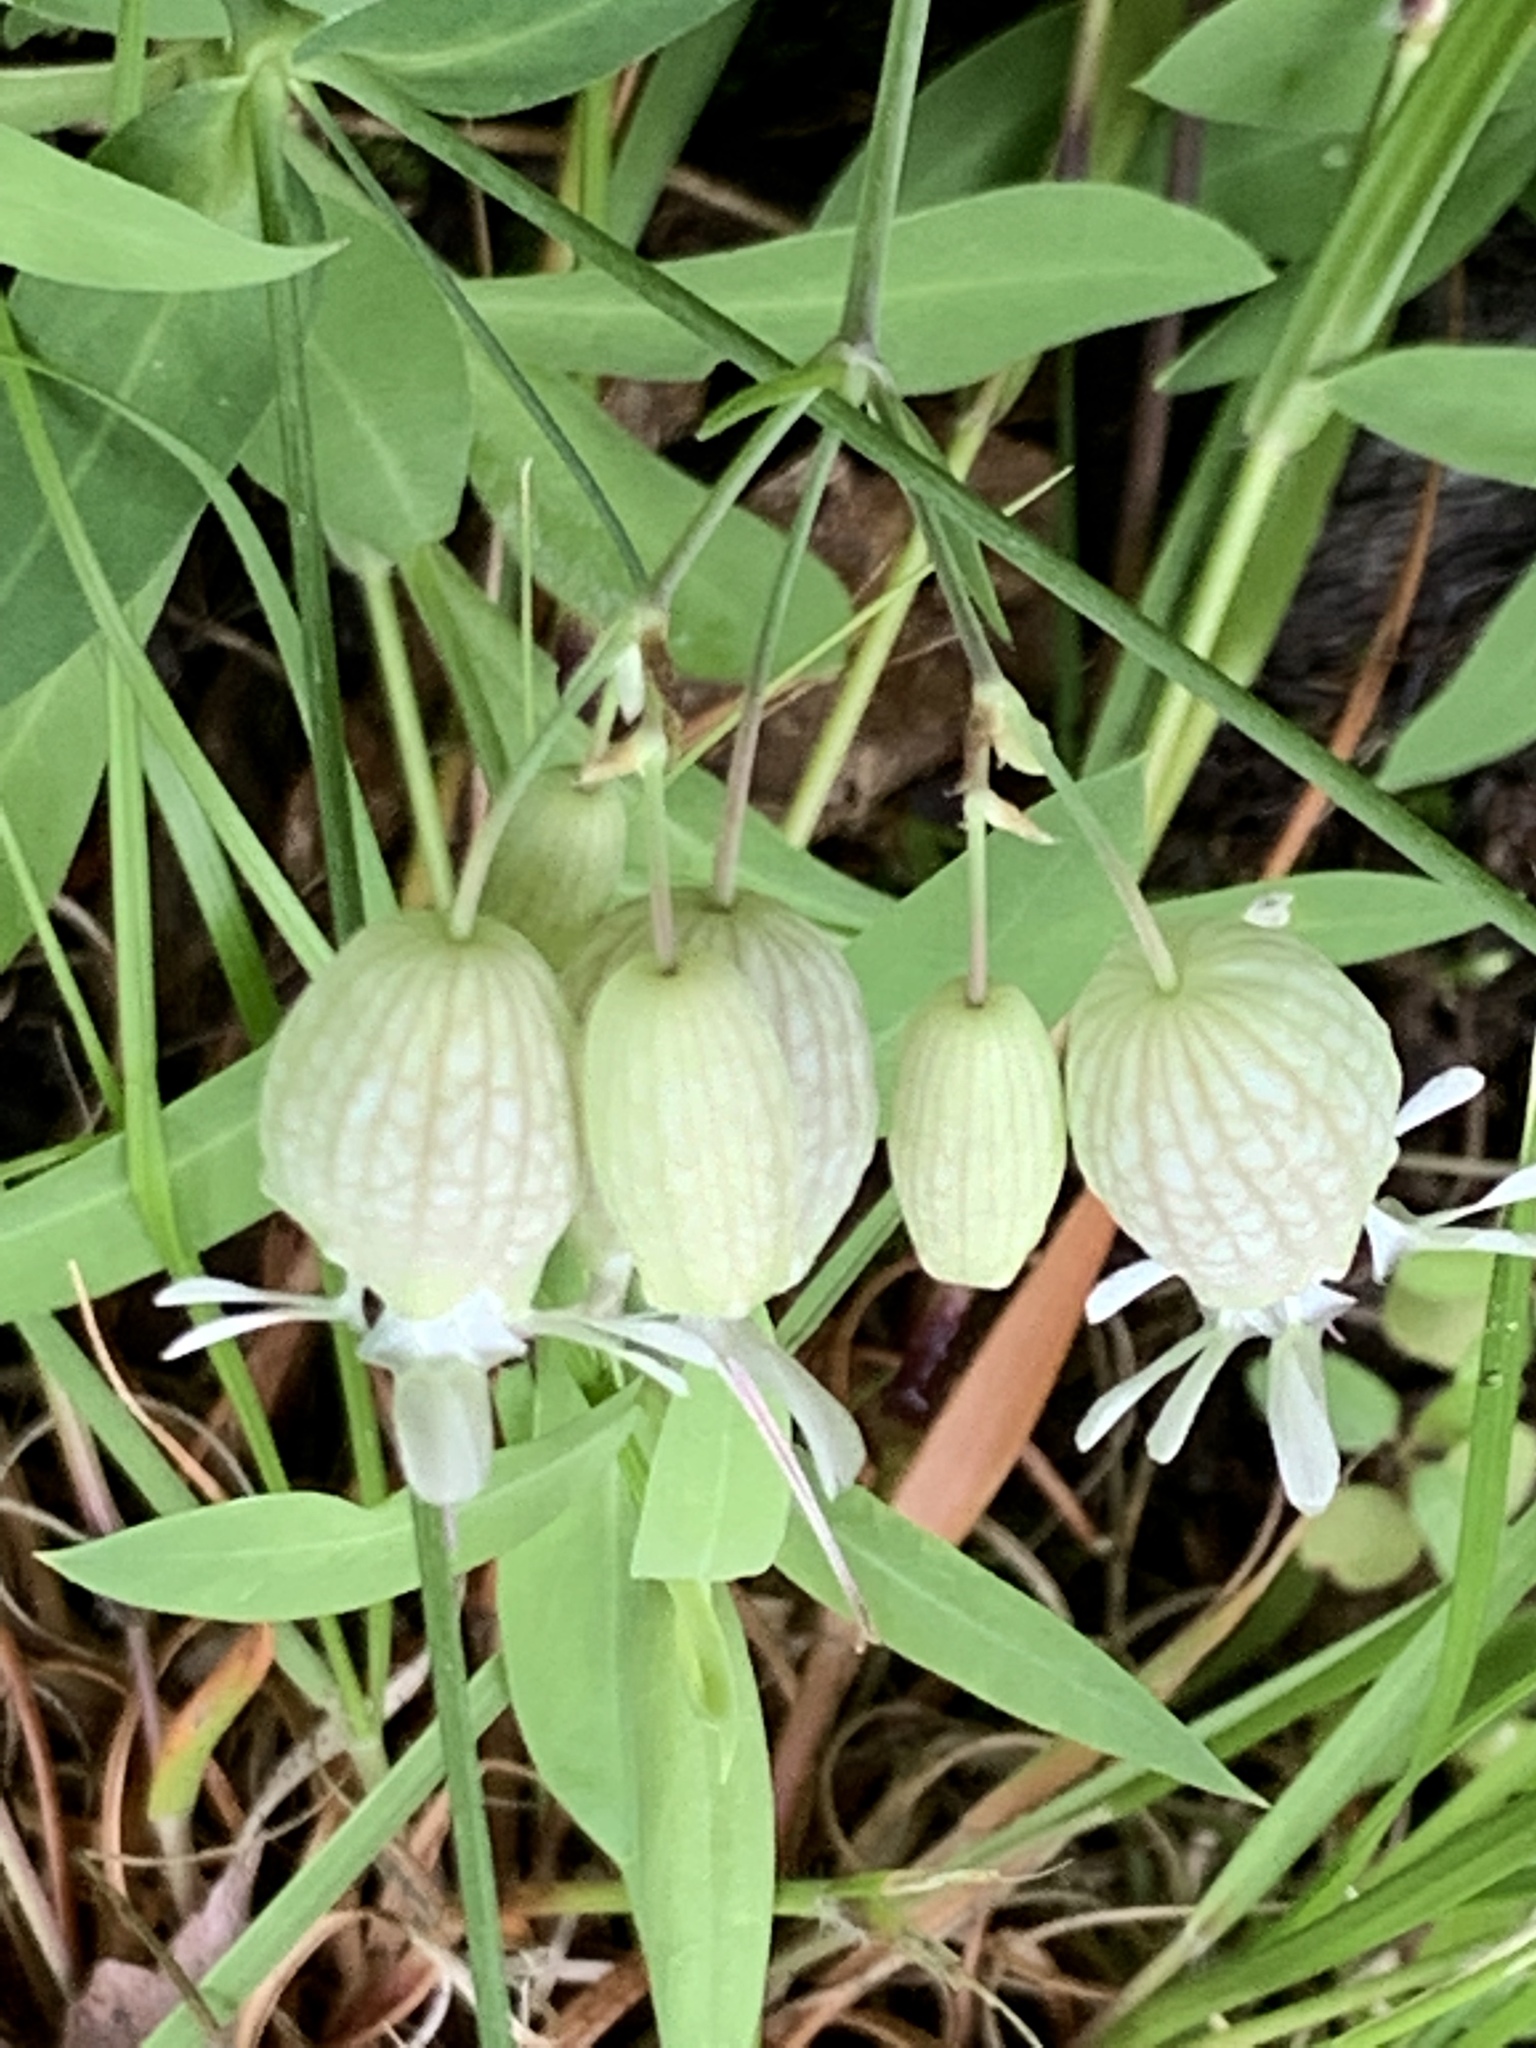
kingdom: Plantae
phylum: Tracheophyta
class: Magnoliopsida
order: Caryophyllales
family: Caryophyllaceae
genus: Silene
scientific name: Silene vulgaris
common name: Bladder campion
